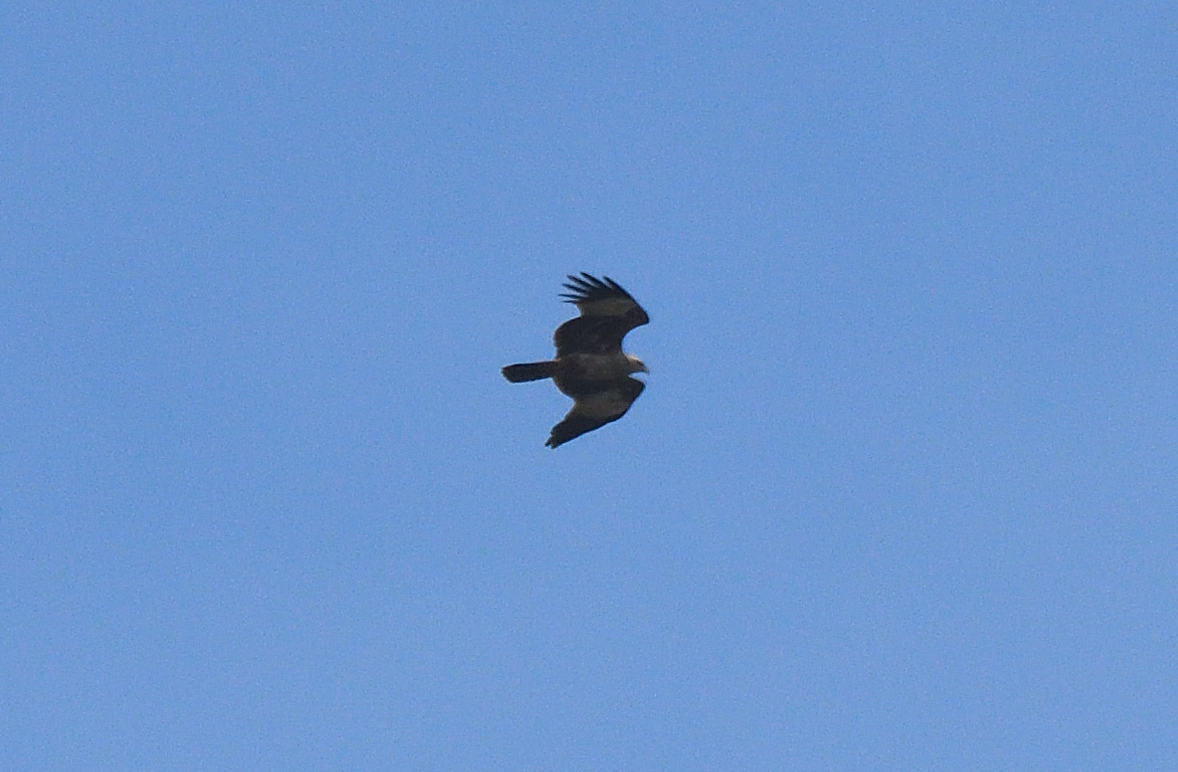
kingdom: Animalia
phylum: Chordata
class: Aves
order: Accipitriformes
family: Accipitridae
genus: Haliastur
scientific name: Haliastur indus
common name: Brahminy kite
